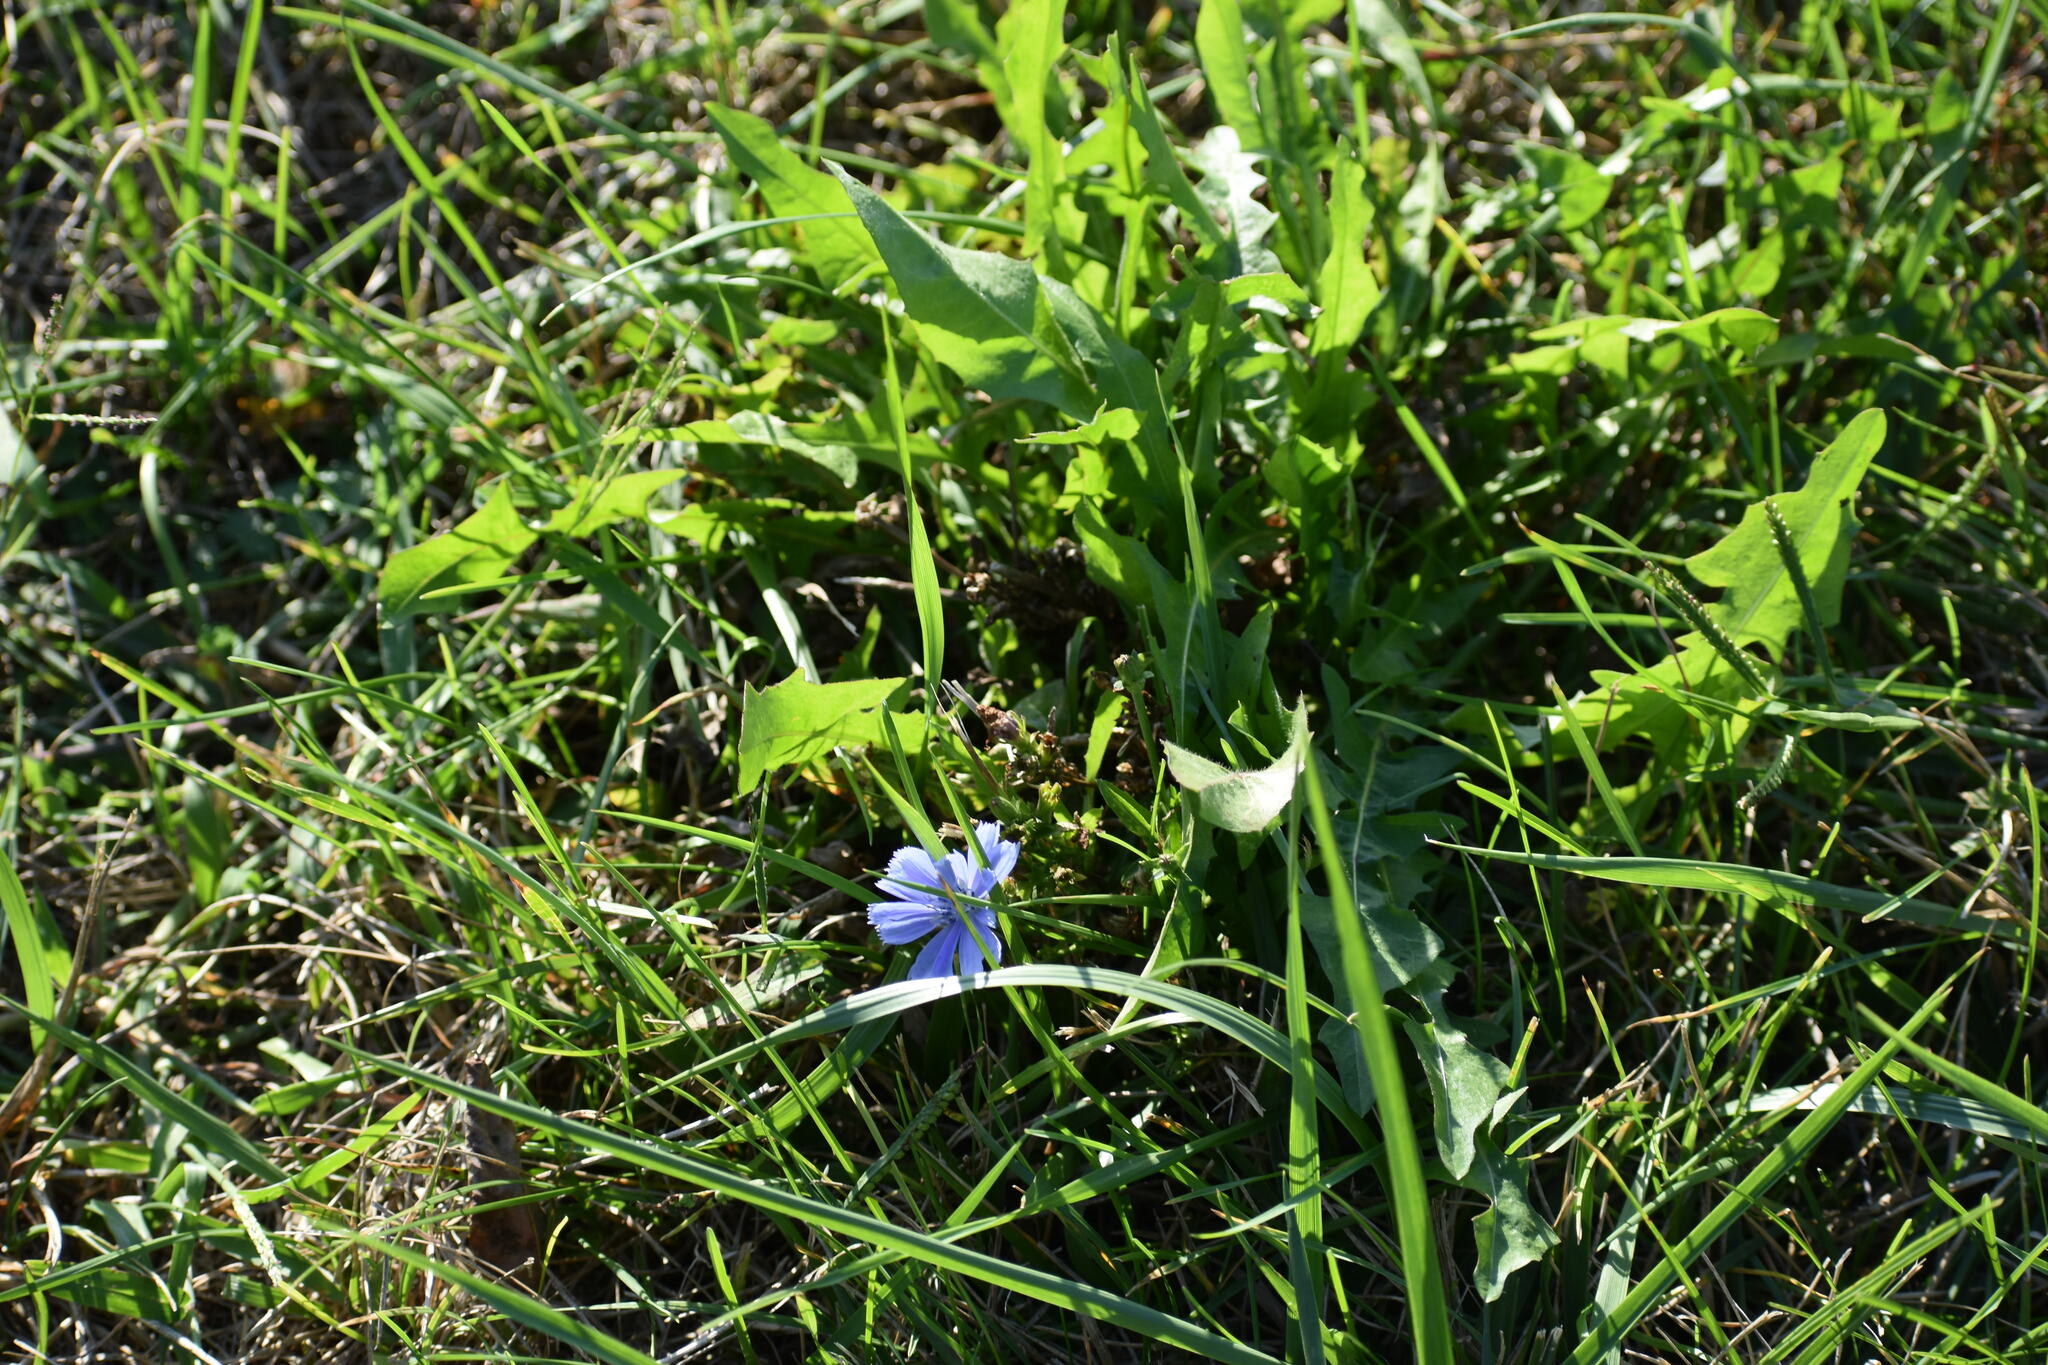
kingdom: Plantae
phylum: Tracheophyta
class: Magnoliopsida
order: Asterales
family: Asteraceae
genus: Cichorium
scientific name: Cichorium intybus
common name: Chicory
